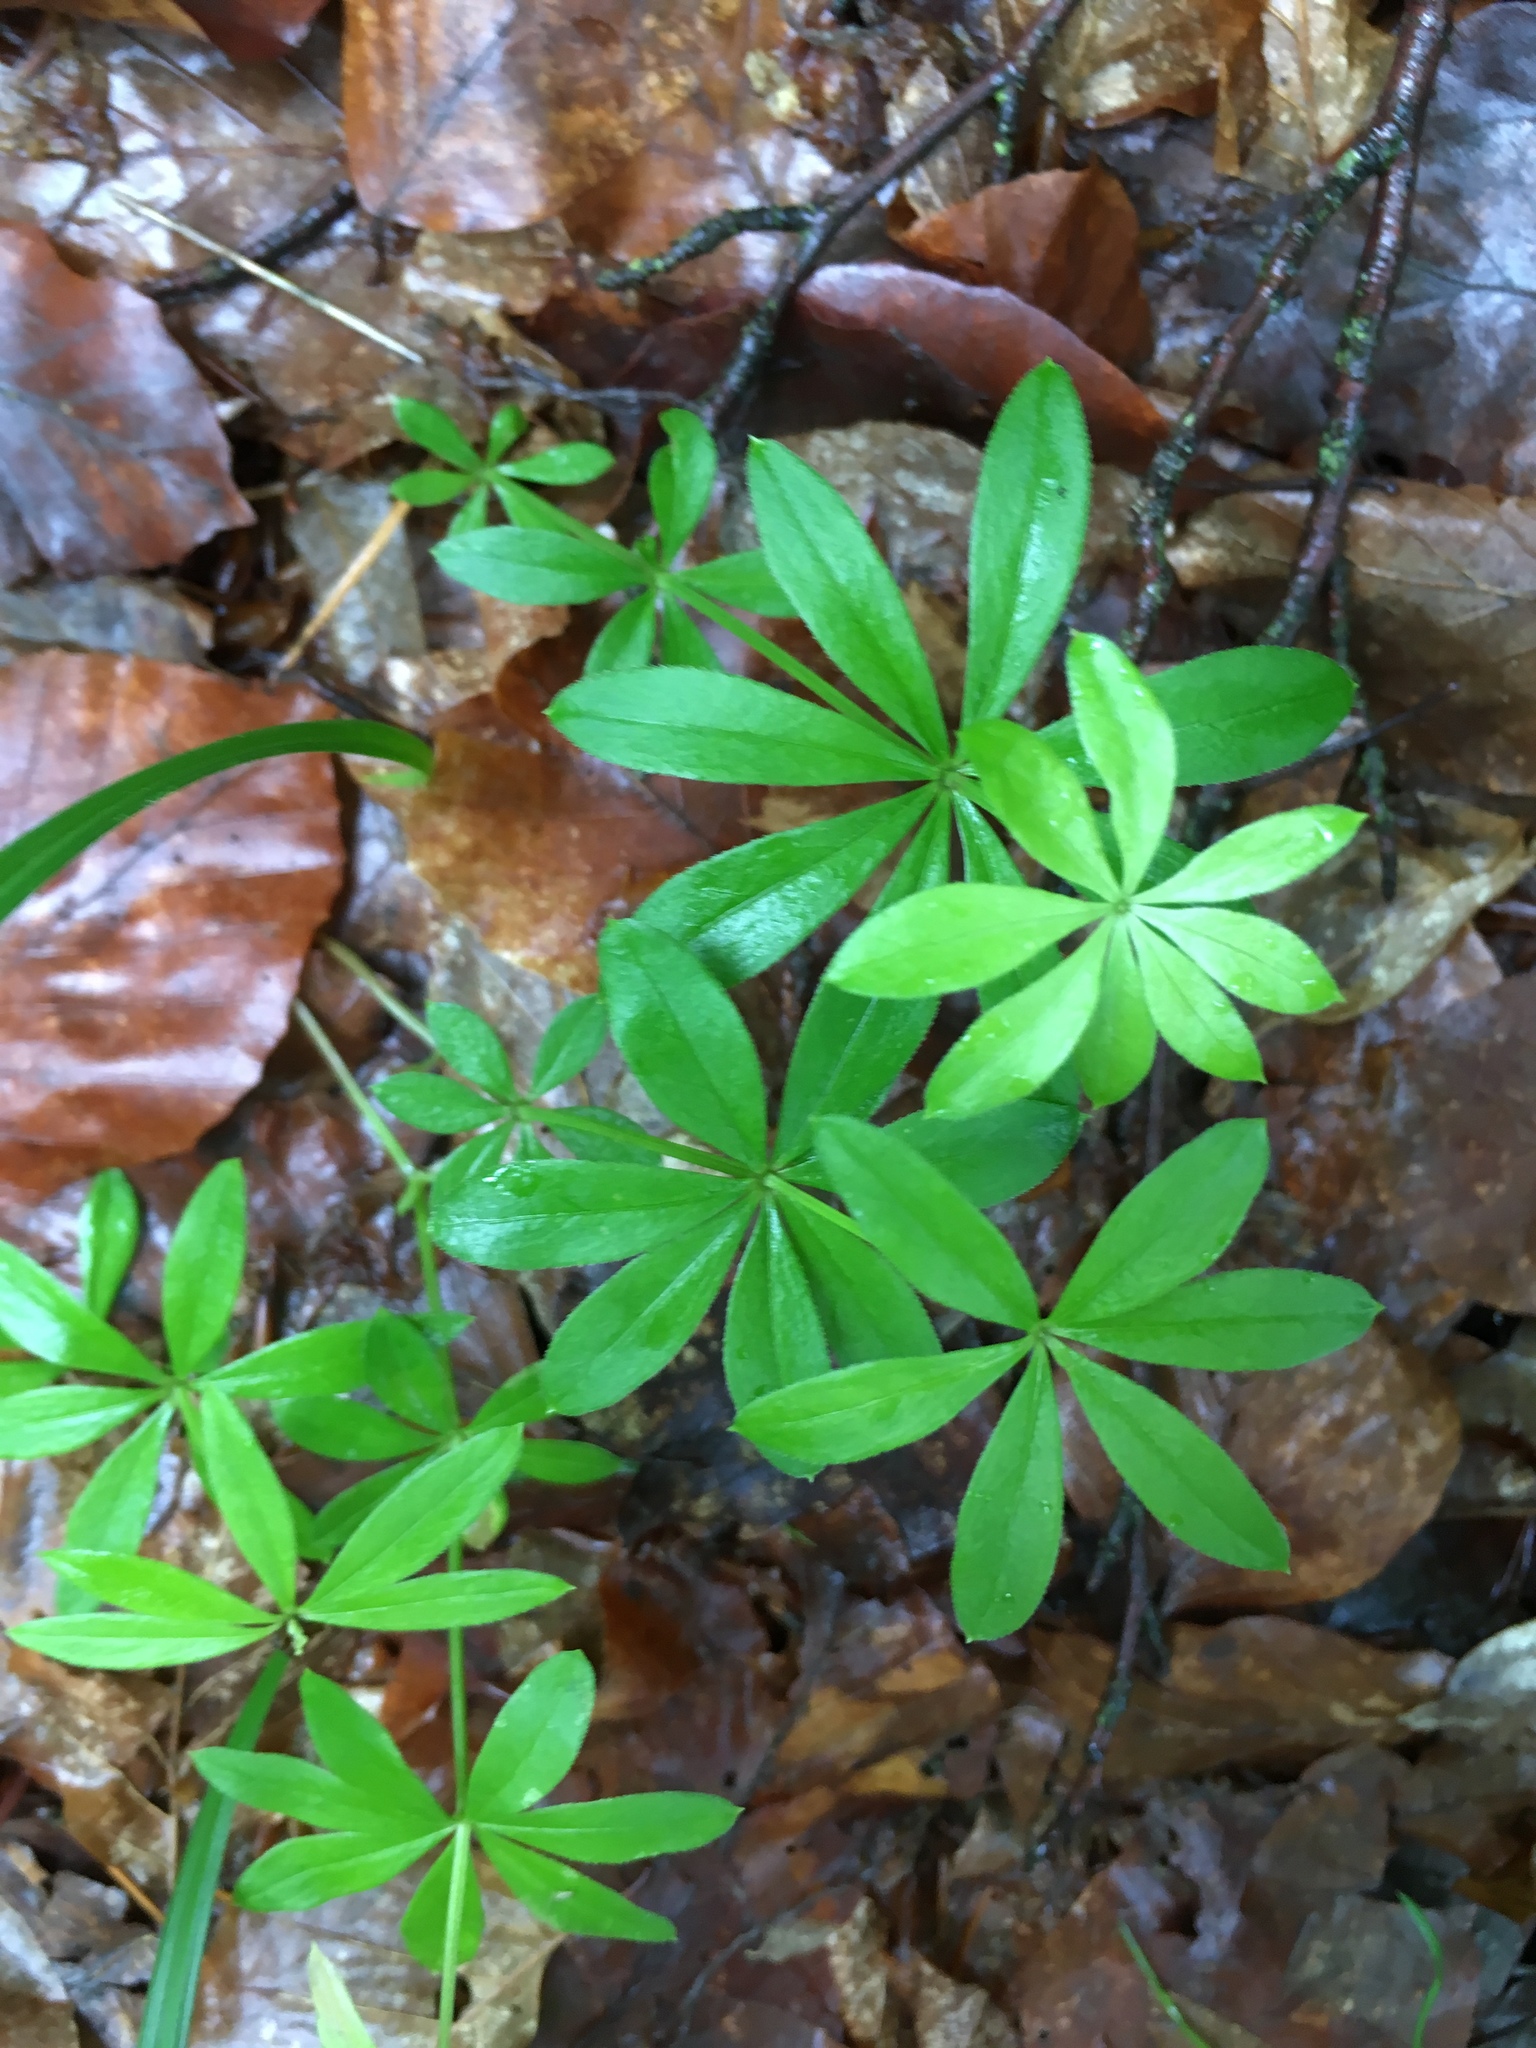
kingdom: Plantae
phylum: Tracheophyta
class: Magnoliopsida
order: Gentianales
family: Rubiaceae
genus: Galium
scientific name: Galium odoratum
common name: Sweet woodruff
